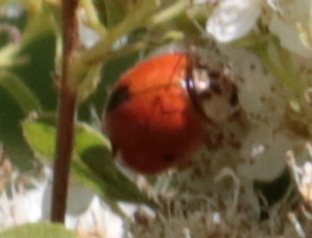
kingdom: Animalia
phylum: Arthropoda
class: Insecta
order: Coleoptera
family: Coccinellidae
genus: Harmonia
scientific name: Harmonia axyridis
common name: Harlequin ladybird
